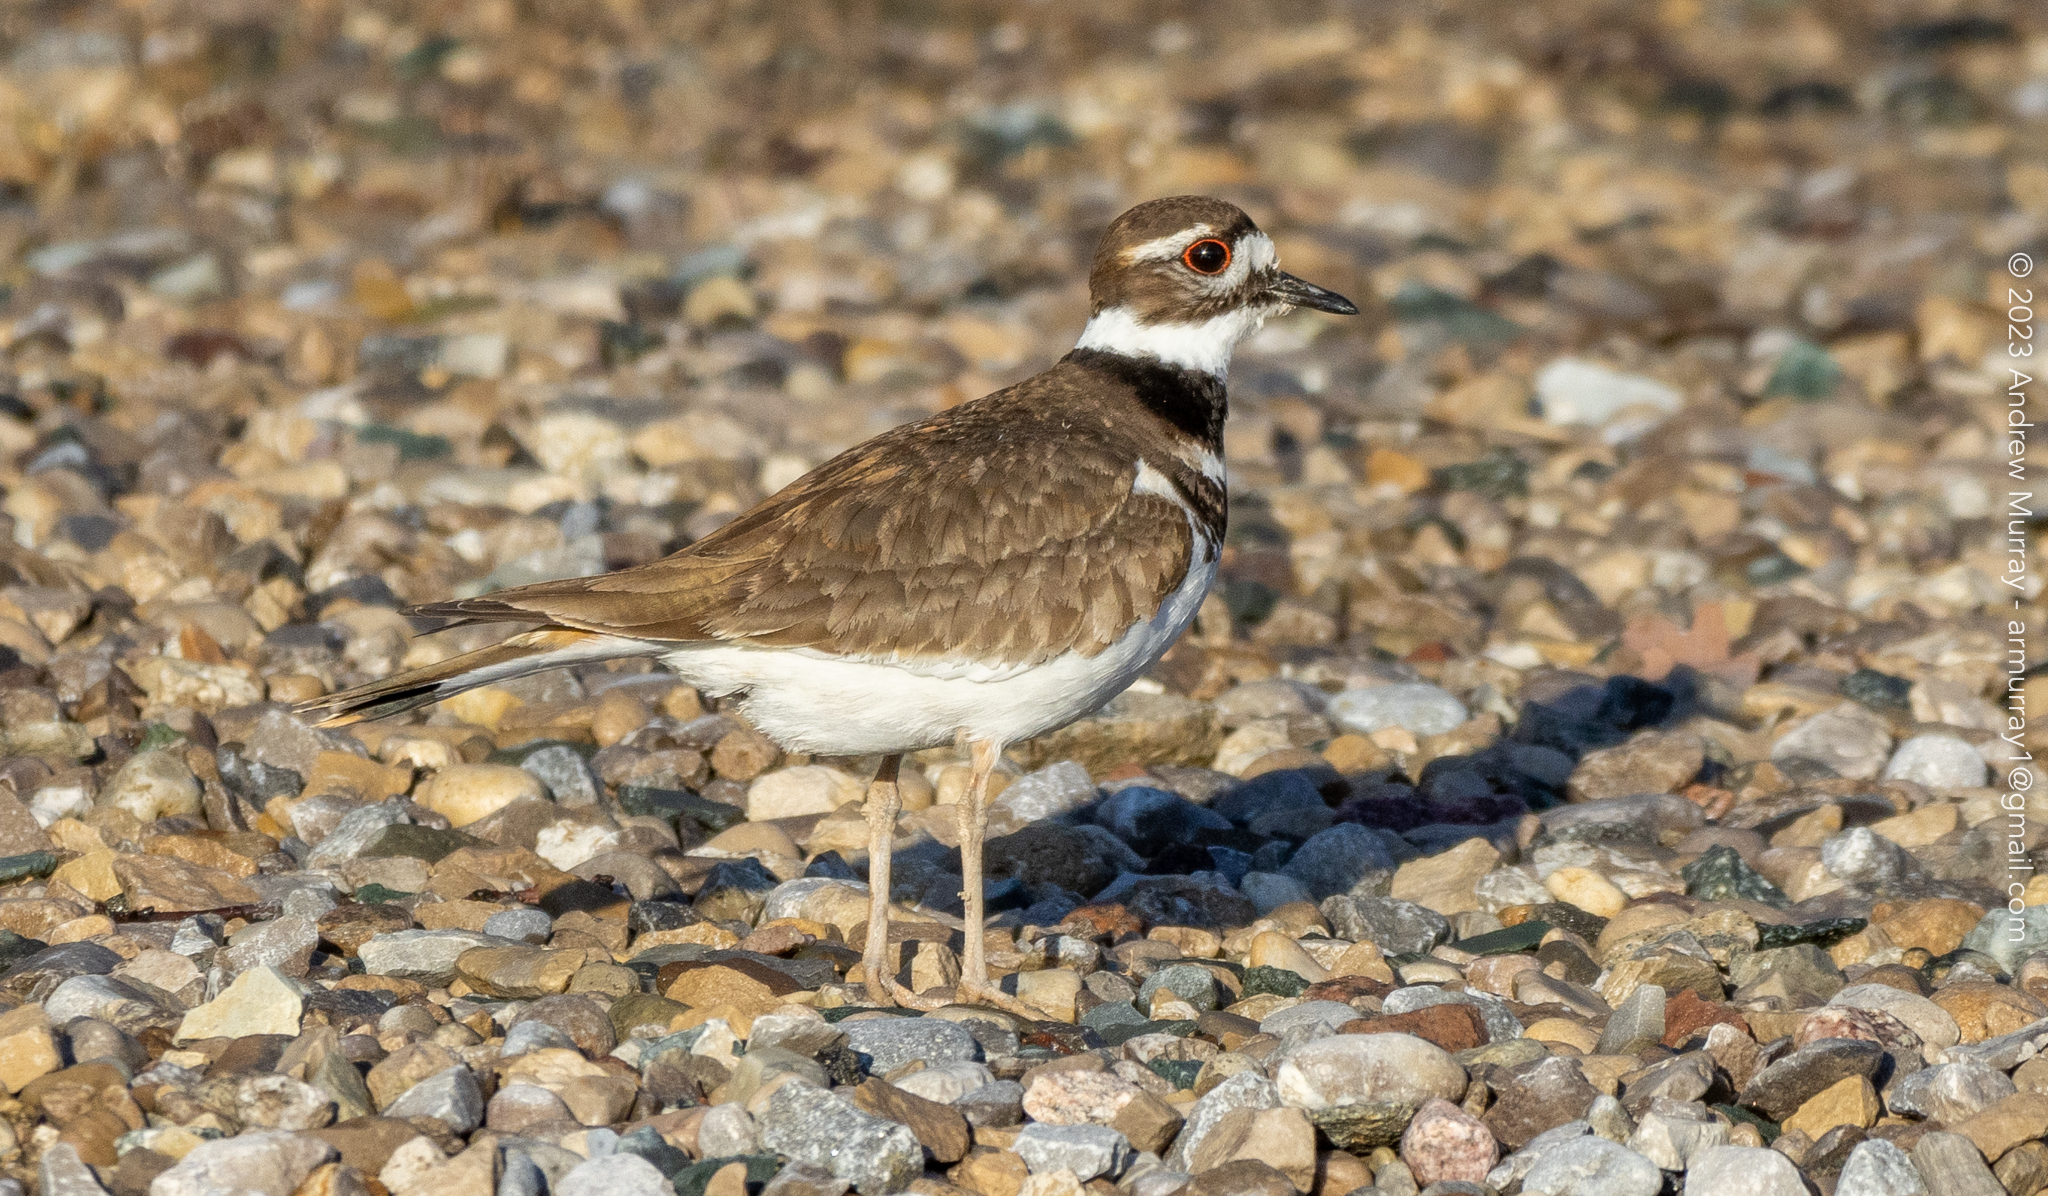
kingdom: Animalia
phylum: Chordata
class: Aves
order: Charadriiformes
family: Charadriidae
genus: Charadrius
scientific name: Charadrius vociferus
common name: Killdeer
